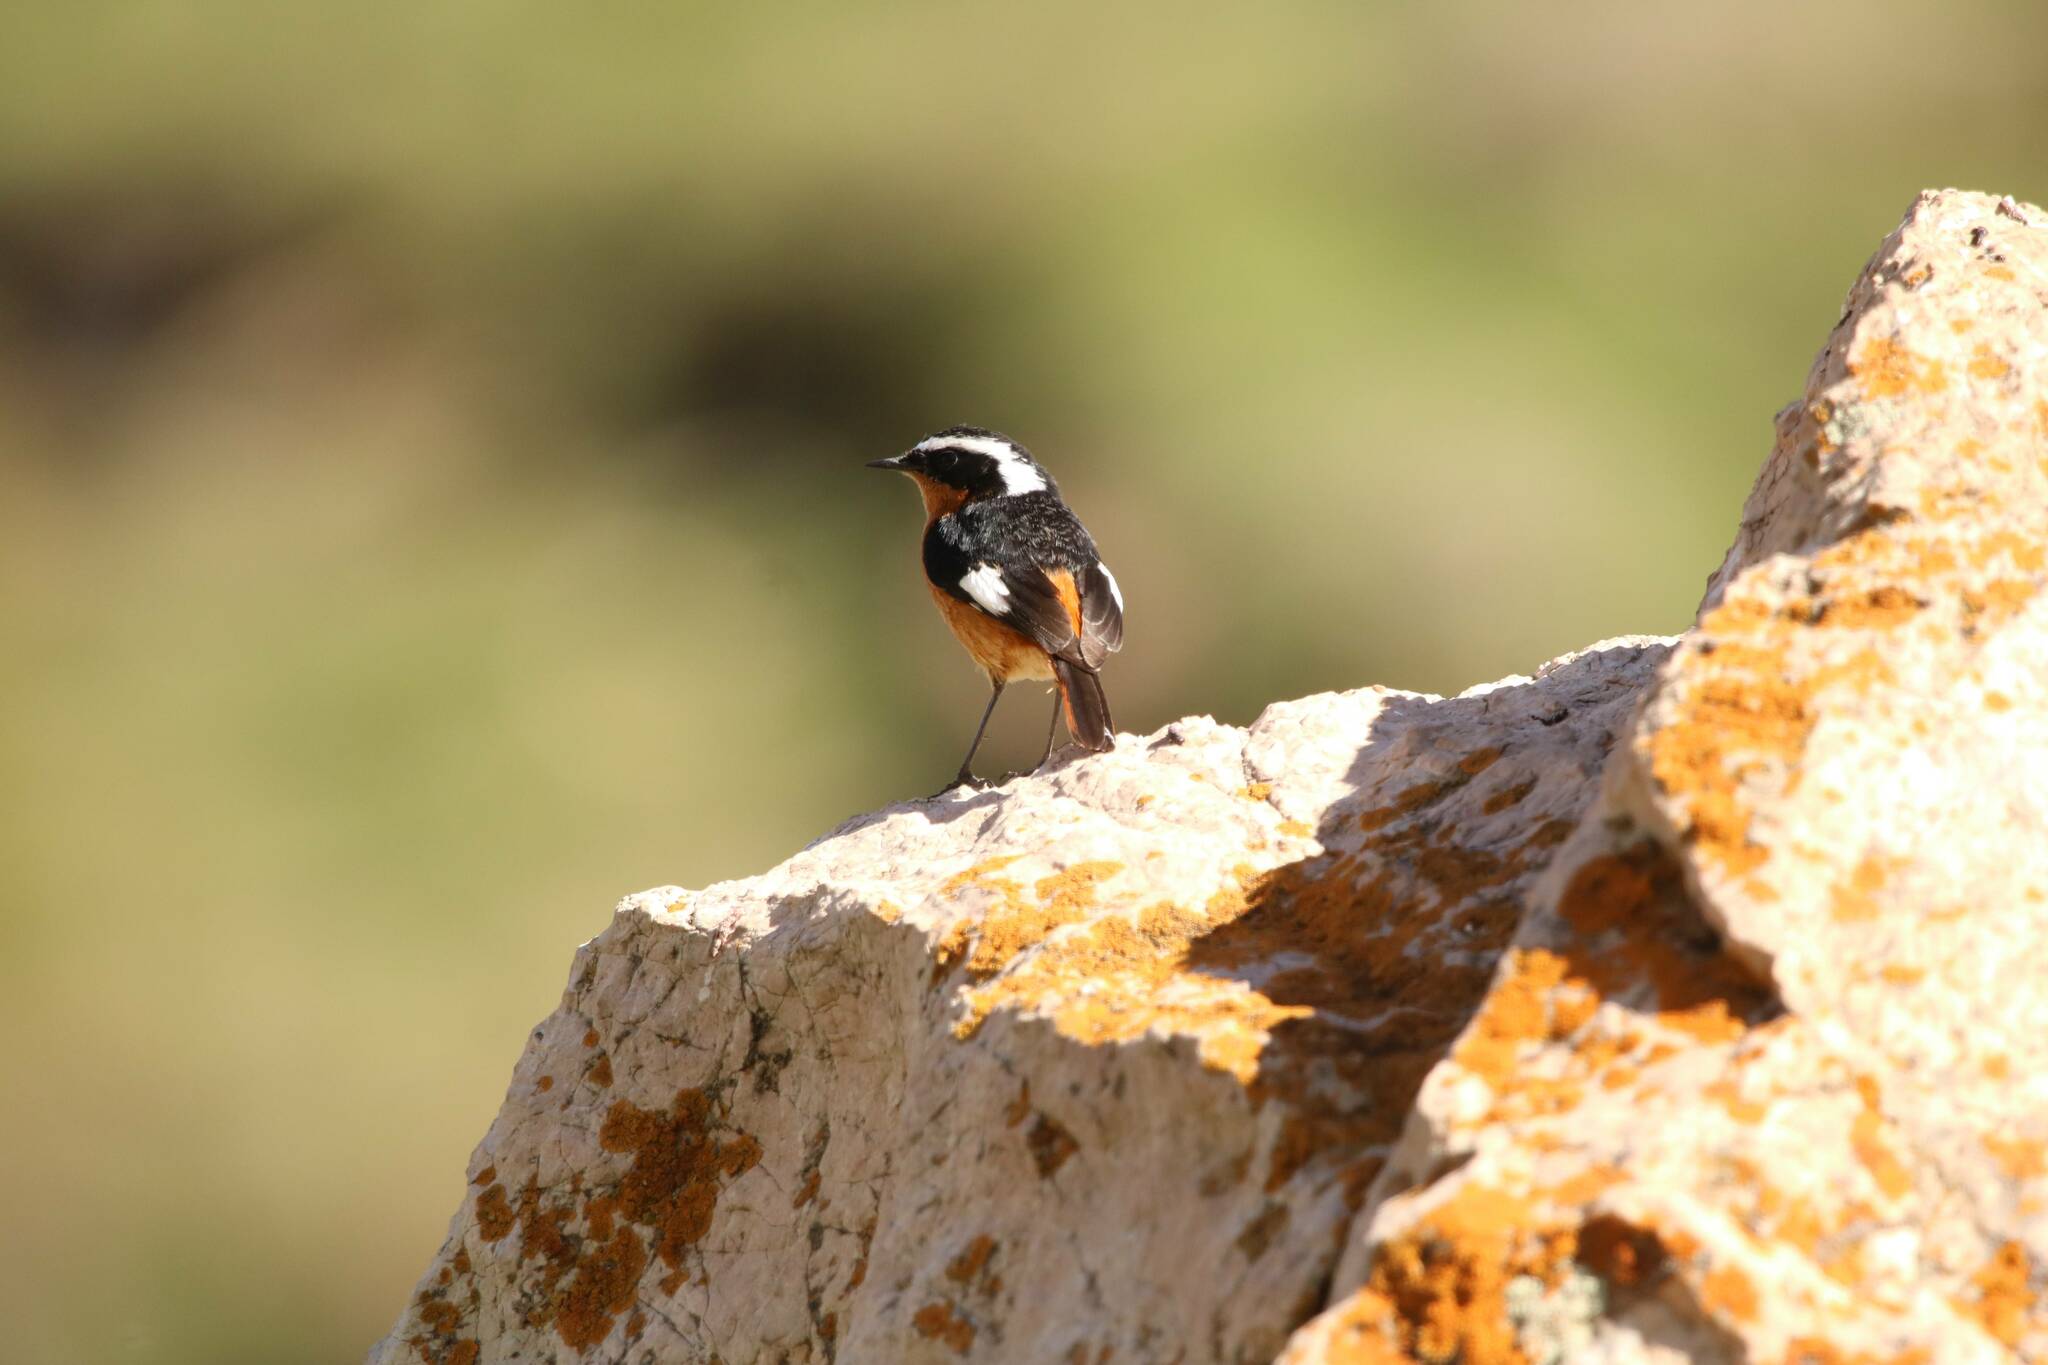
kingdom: Animalia
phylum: Chordata
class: Aves
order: Passeriformes
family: Muscicapidae
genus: Phoenicurus
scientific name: Phoenicurus moussieri
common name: Moussier's redstart
